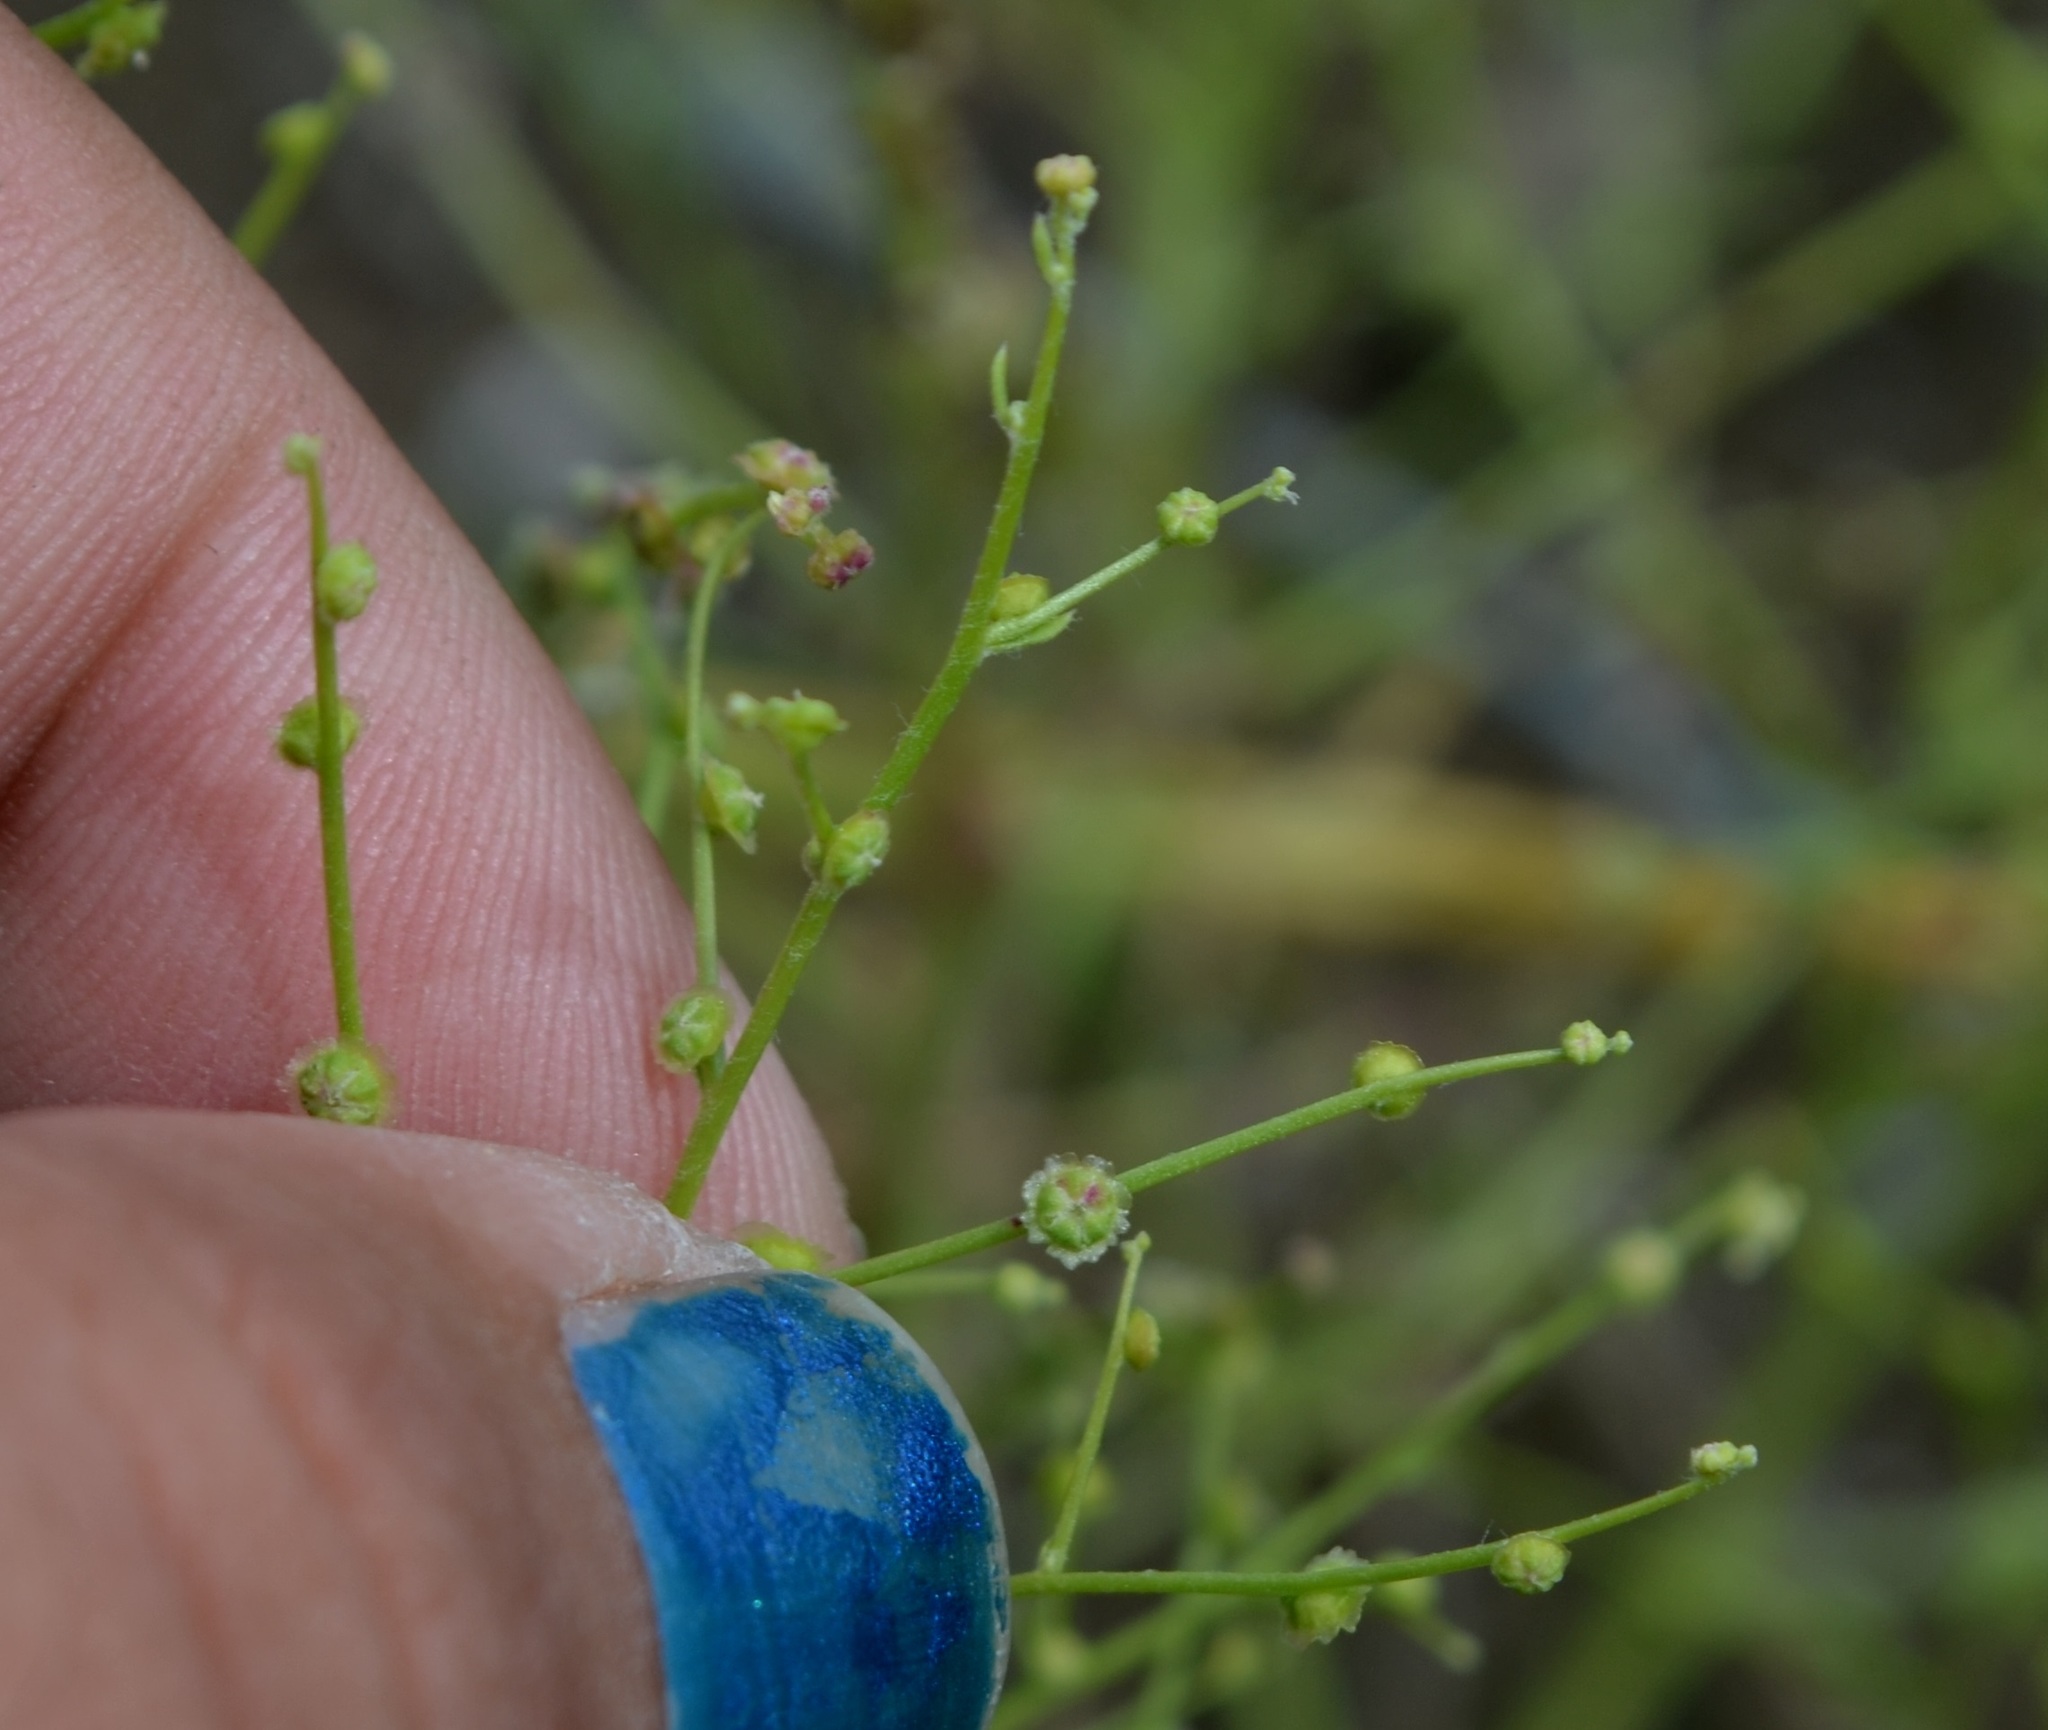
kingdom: Plantae
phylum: Tracheophyta
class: Magnoliopsida
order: Caryophyllales
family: Amaranthaceae
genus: Dysphania
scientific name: Dysphania atriplicifolia
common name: Plains tumbleweed
